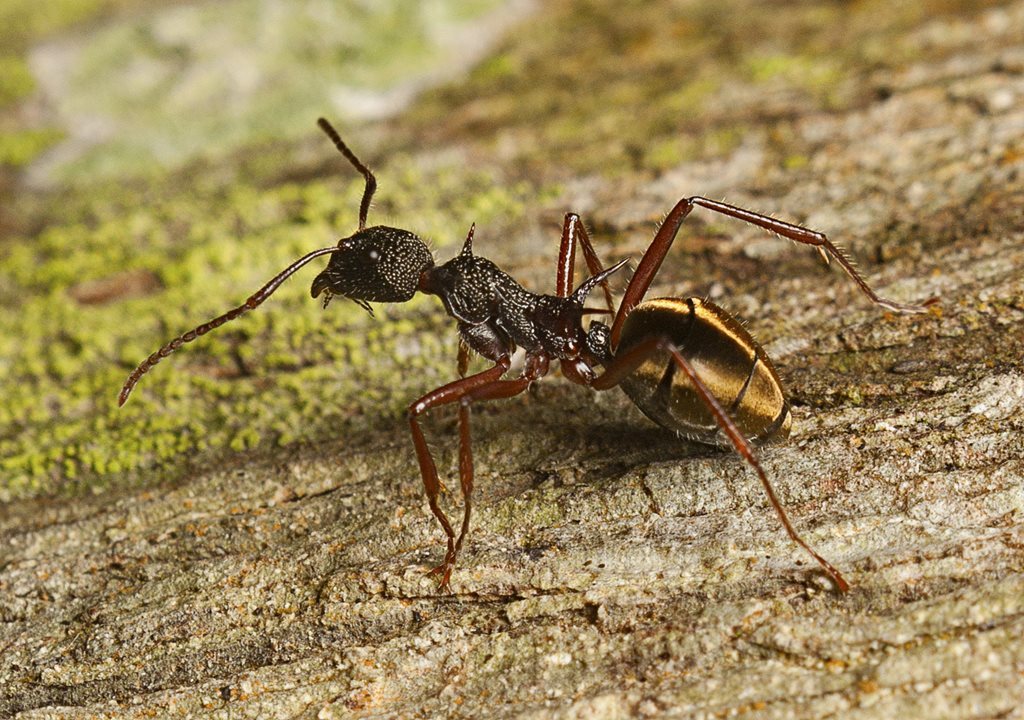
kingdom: Animalia
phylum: Arthropoda
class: Insecta
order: Hymenoptera
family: Formicidae
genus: Dolichoderus
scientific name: Dolichoderus extensispinus
